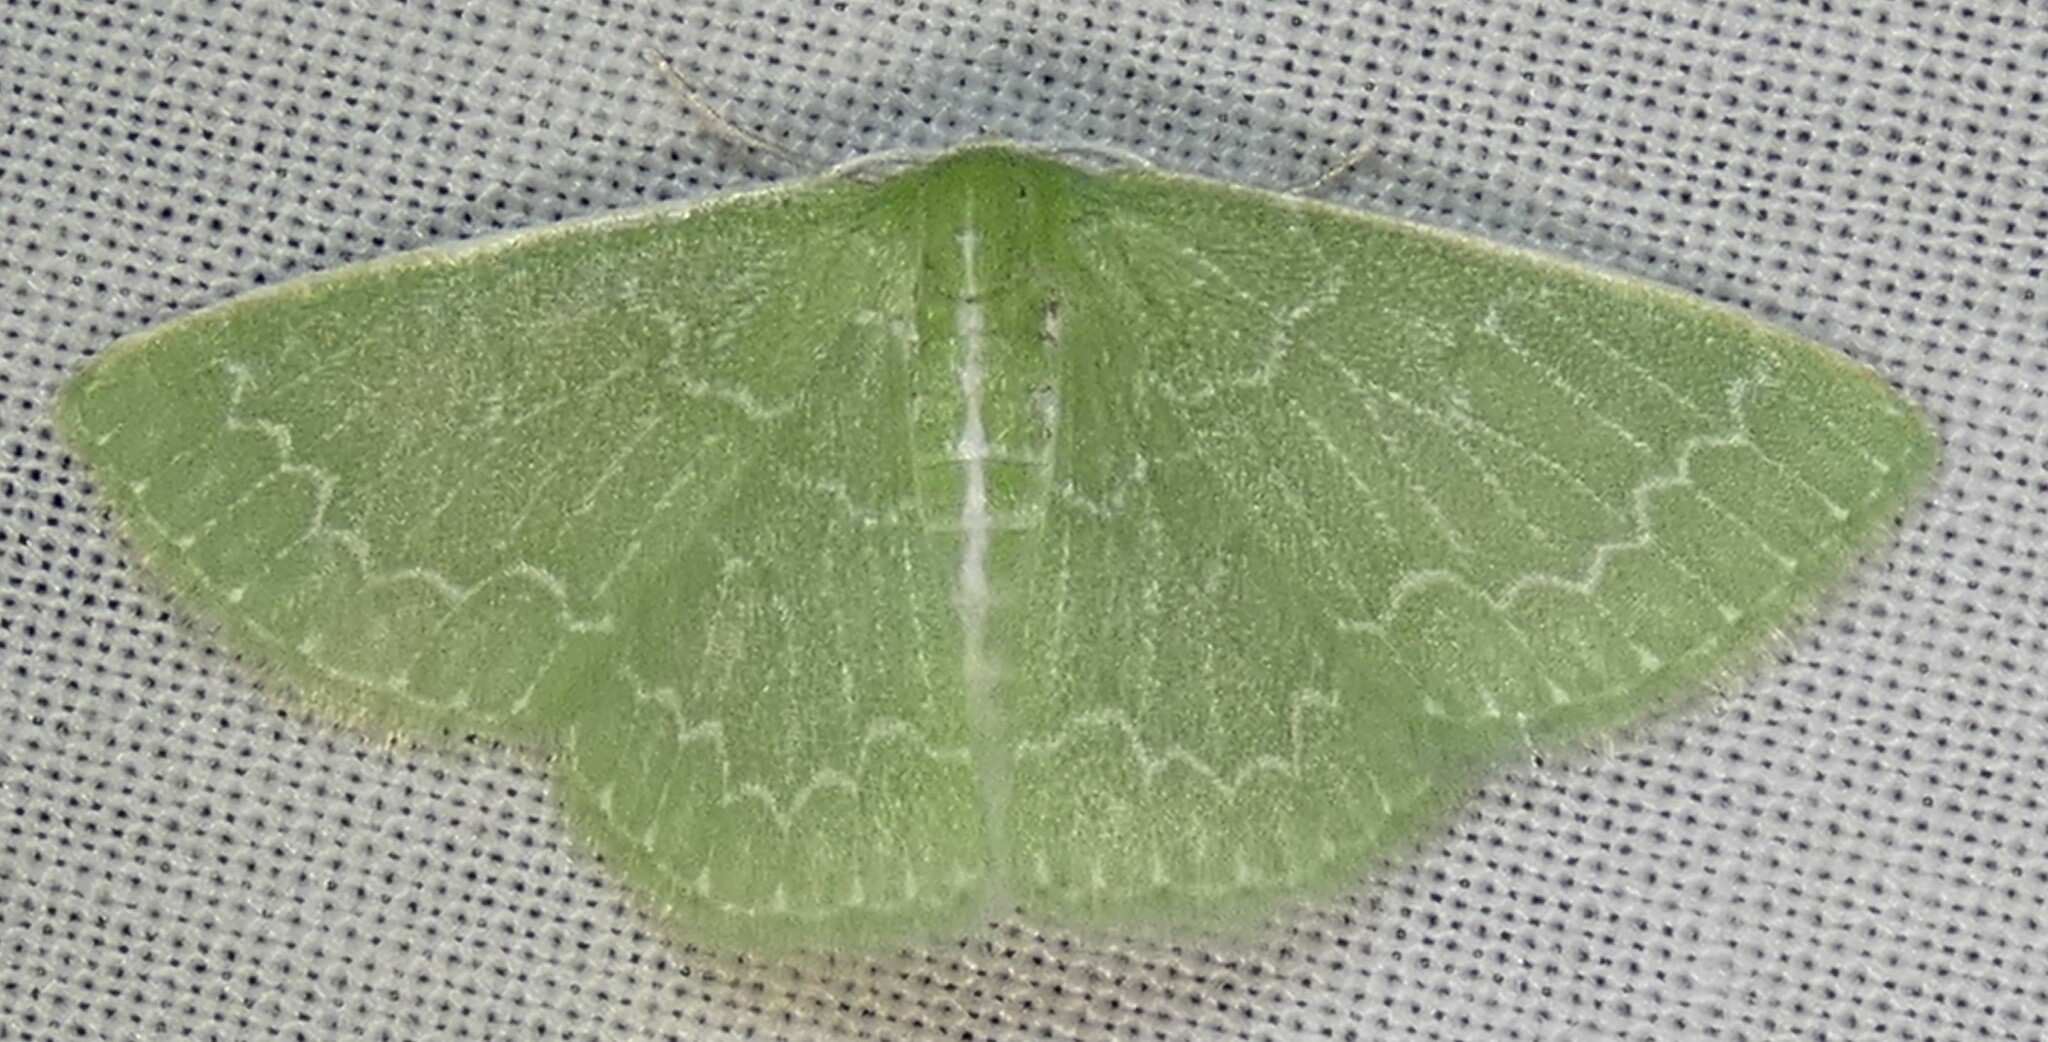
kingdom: Animalia
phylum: Arthropoda
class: Insecta
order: Lepidoptera
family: Geometridae
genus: Synchlora
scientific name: Synchlora frondaria
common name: Southern emerald
